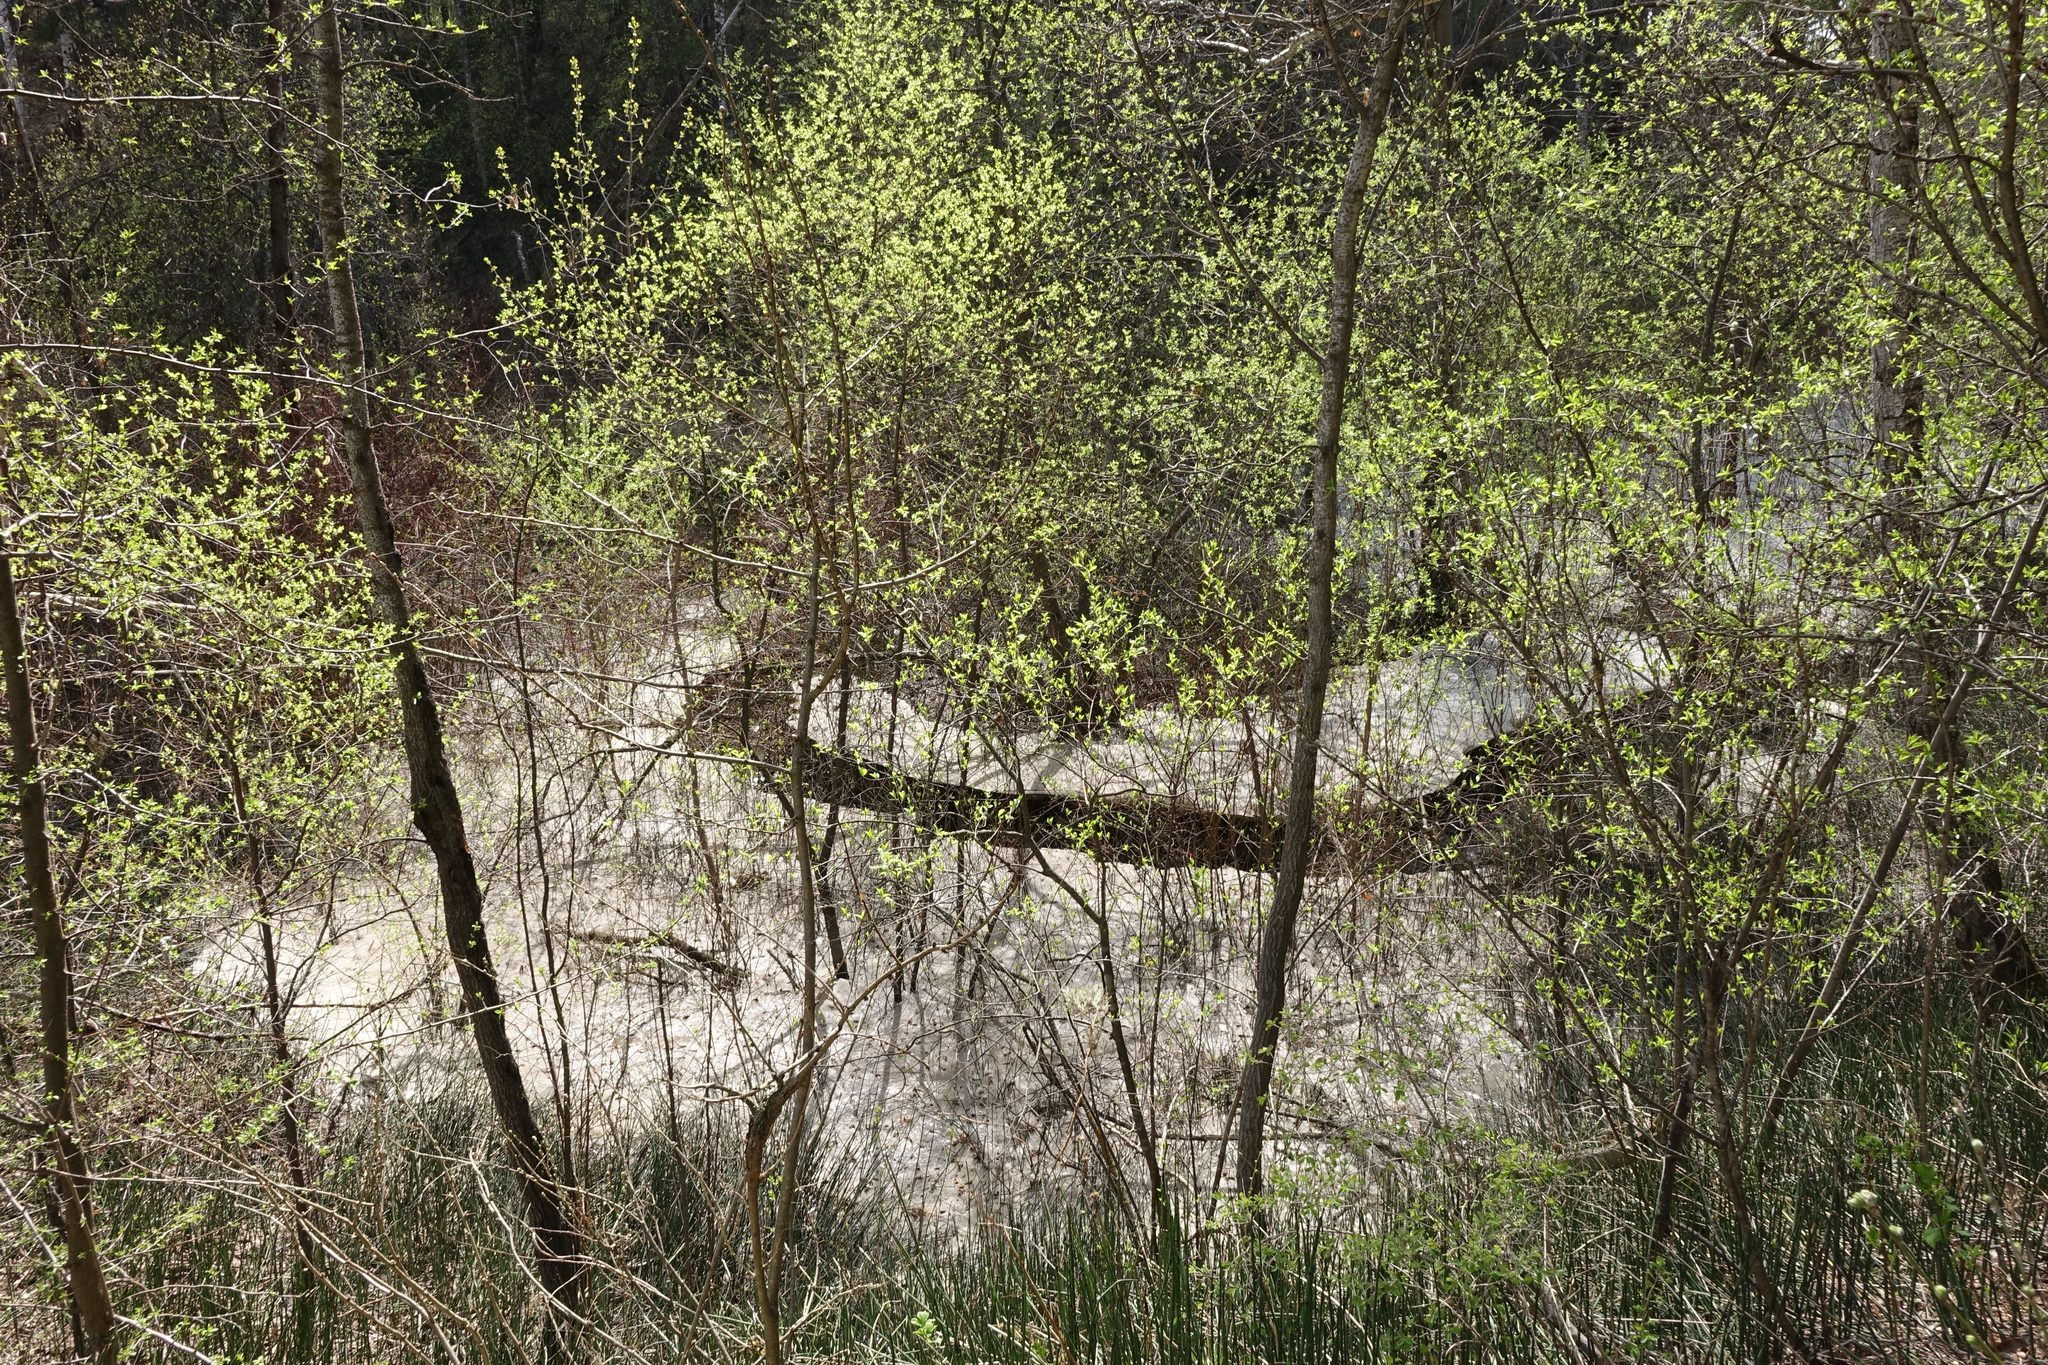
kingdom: Plantae
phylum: Tracheophyta
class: Magnoliopsida
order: Rosales
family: Rosaceae
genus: Prunus
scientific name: Prunus padus
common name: Bird cherry
